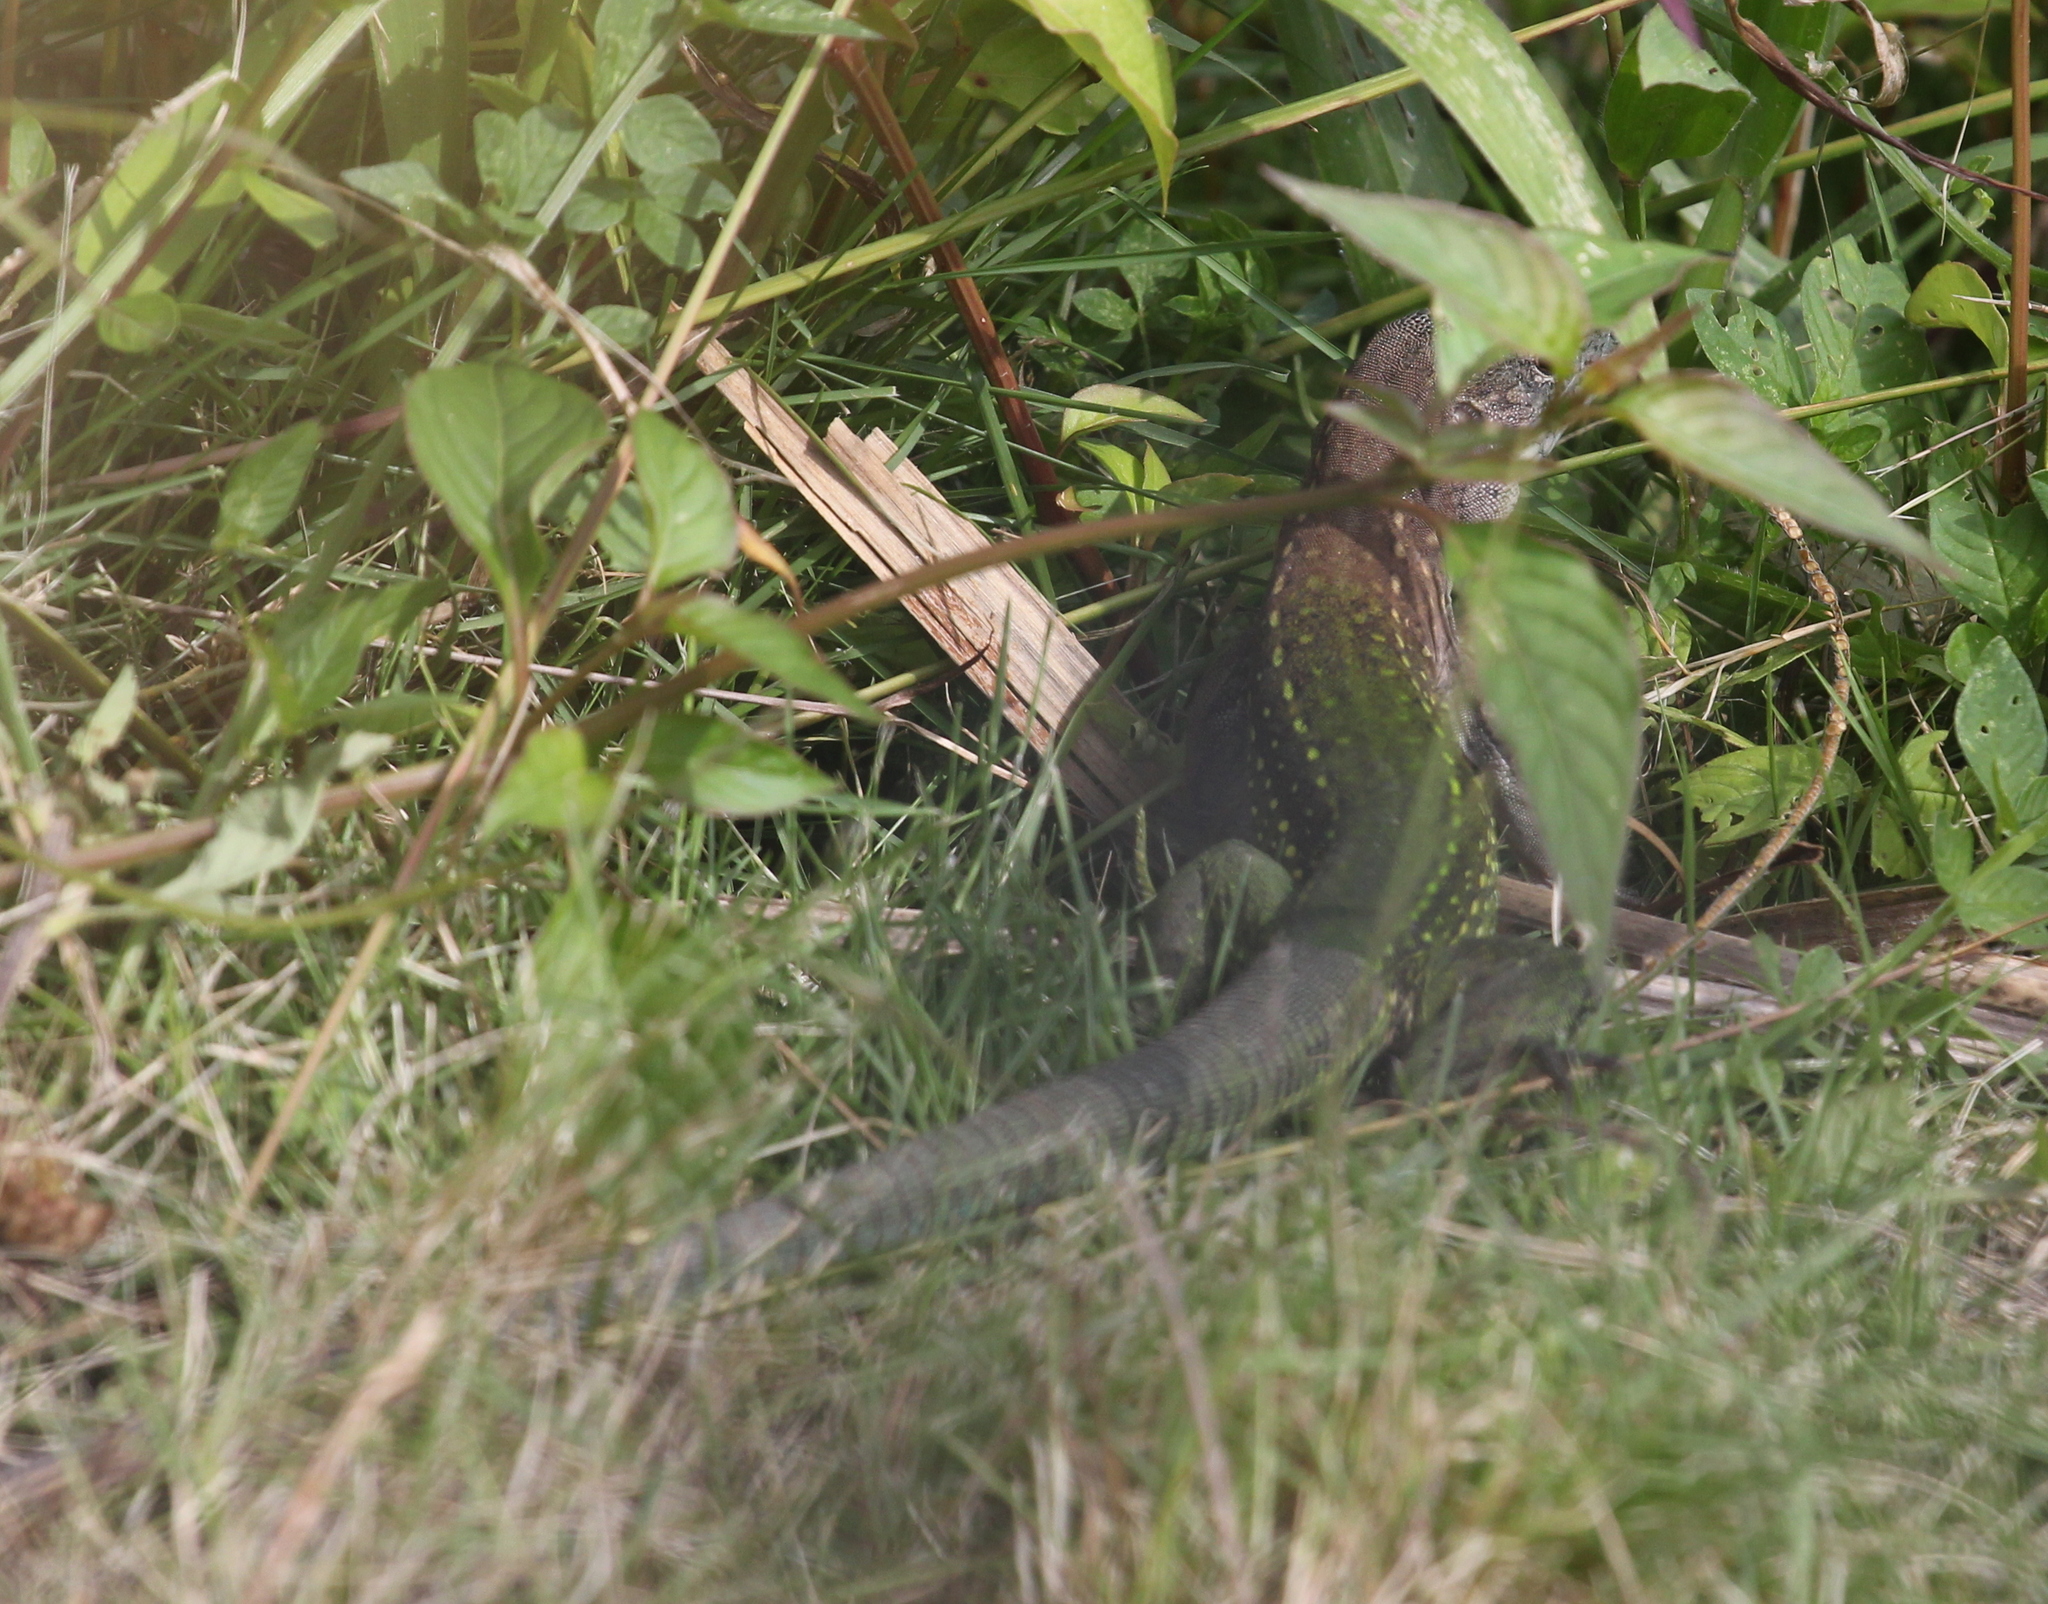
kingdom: Animalia
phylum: Chordata
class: Squamata
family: Teiidae
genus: Ameiva
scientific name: Ameiva ameiva
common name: Giant ameiva
